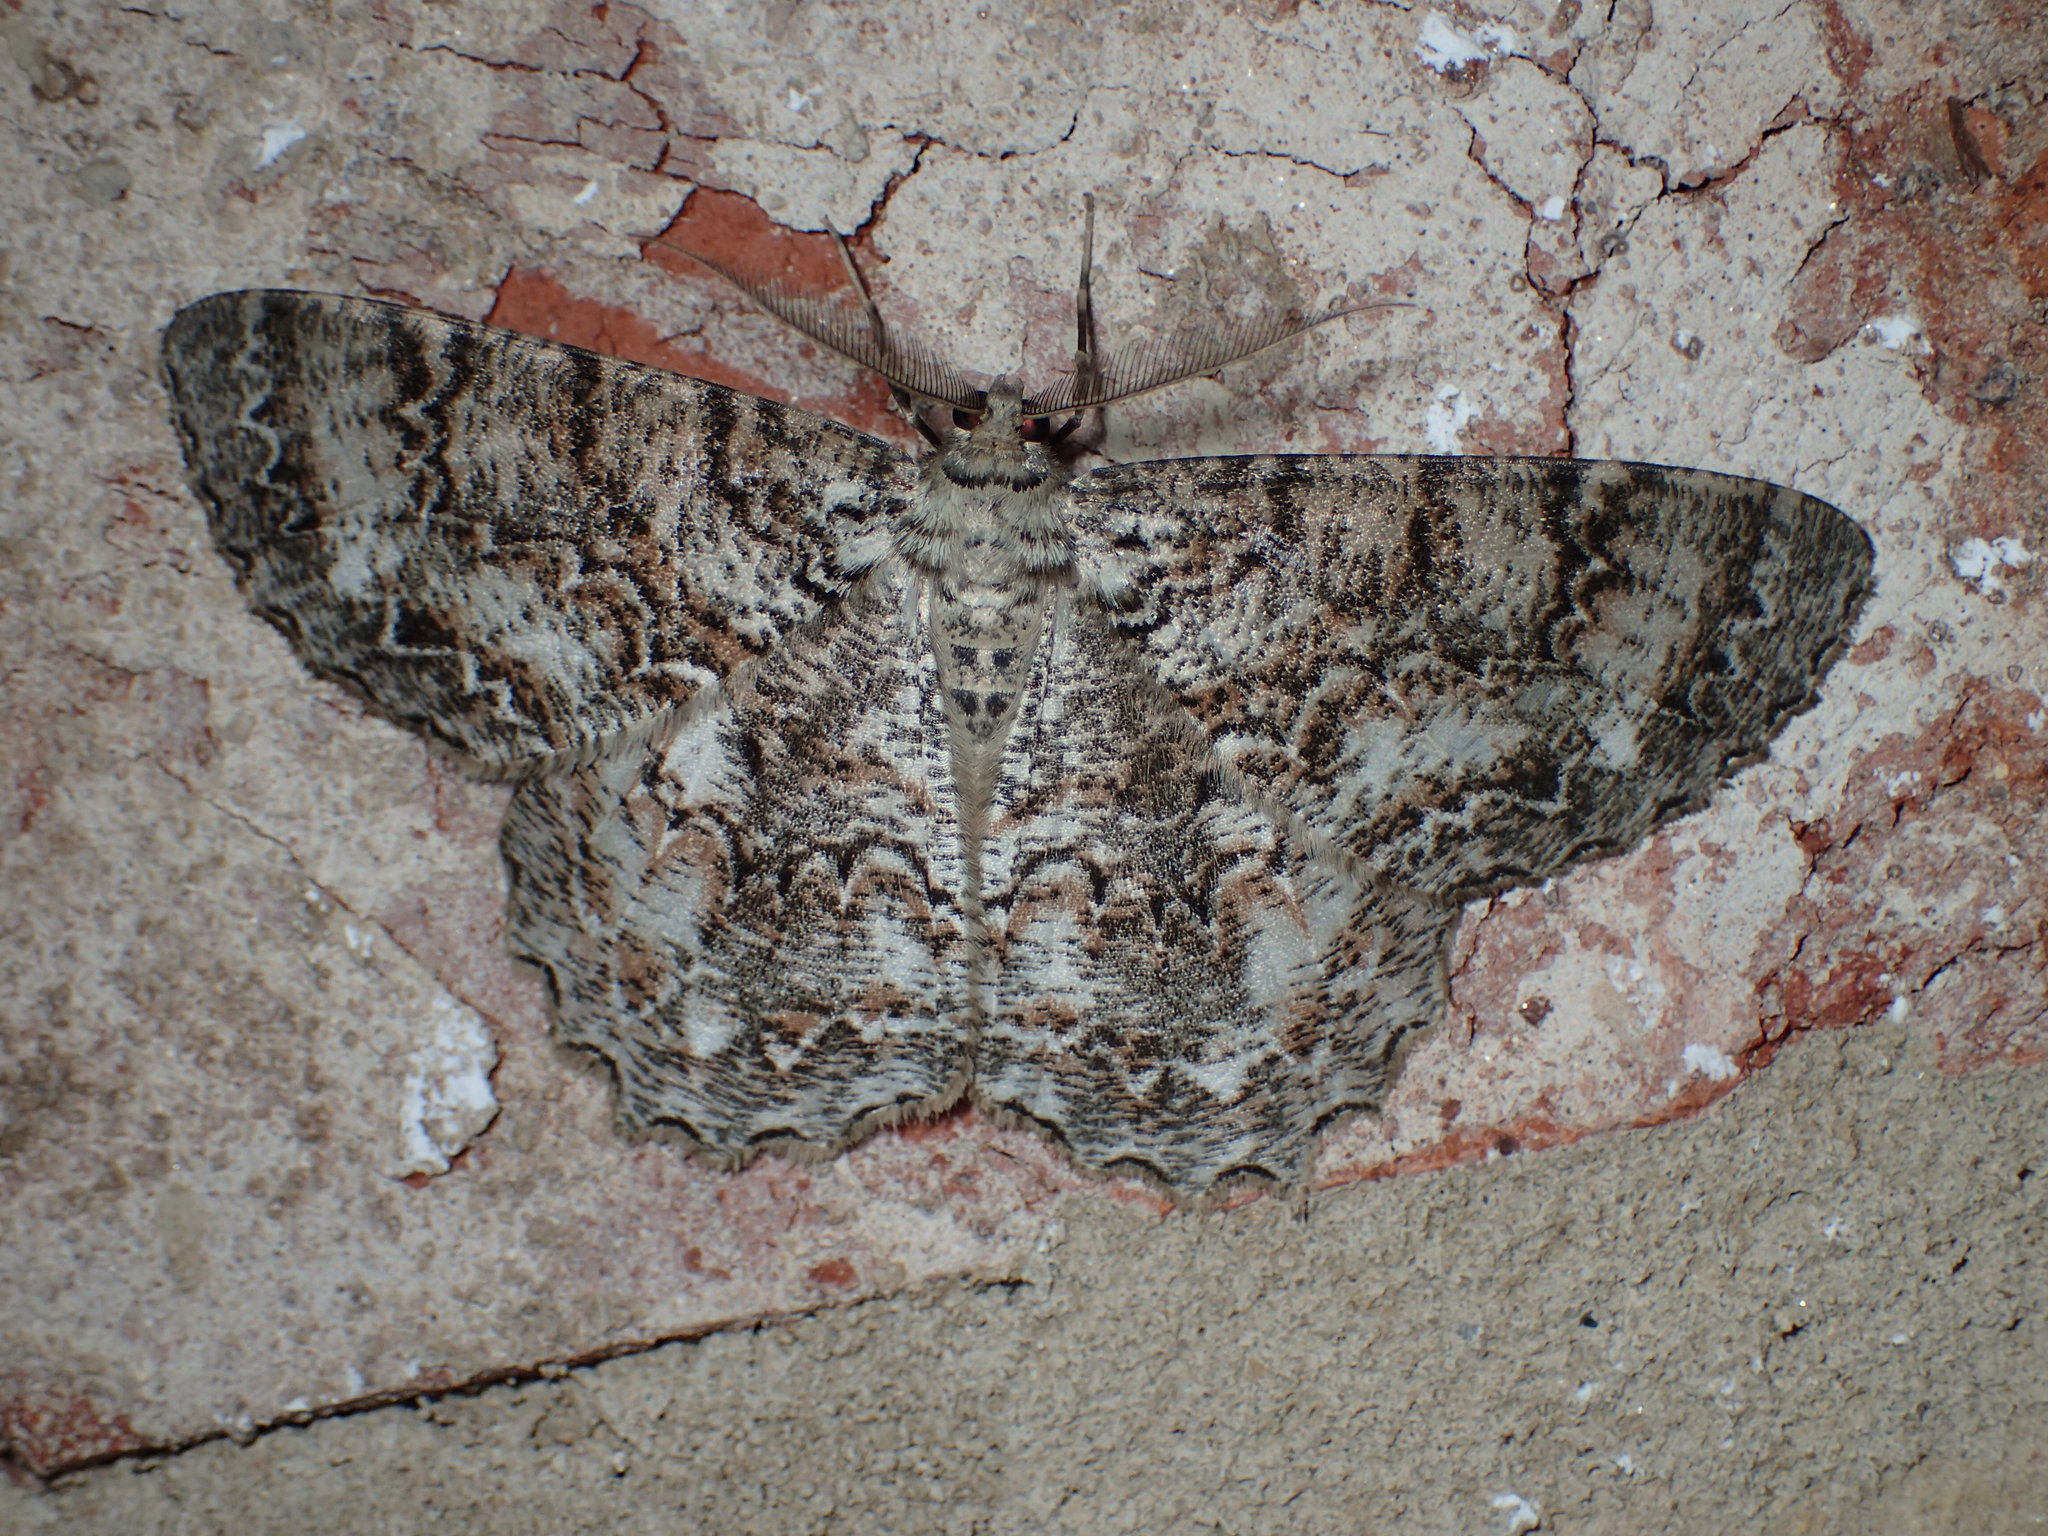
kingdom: Animalia
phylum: Arthropoda
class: Insecta
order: Lepidoptera
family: Geometridae
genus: Epimecis
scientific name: Epimecis hortaria
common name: Tulip-tree beauty
